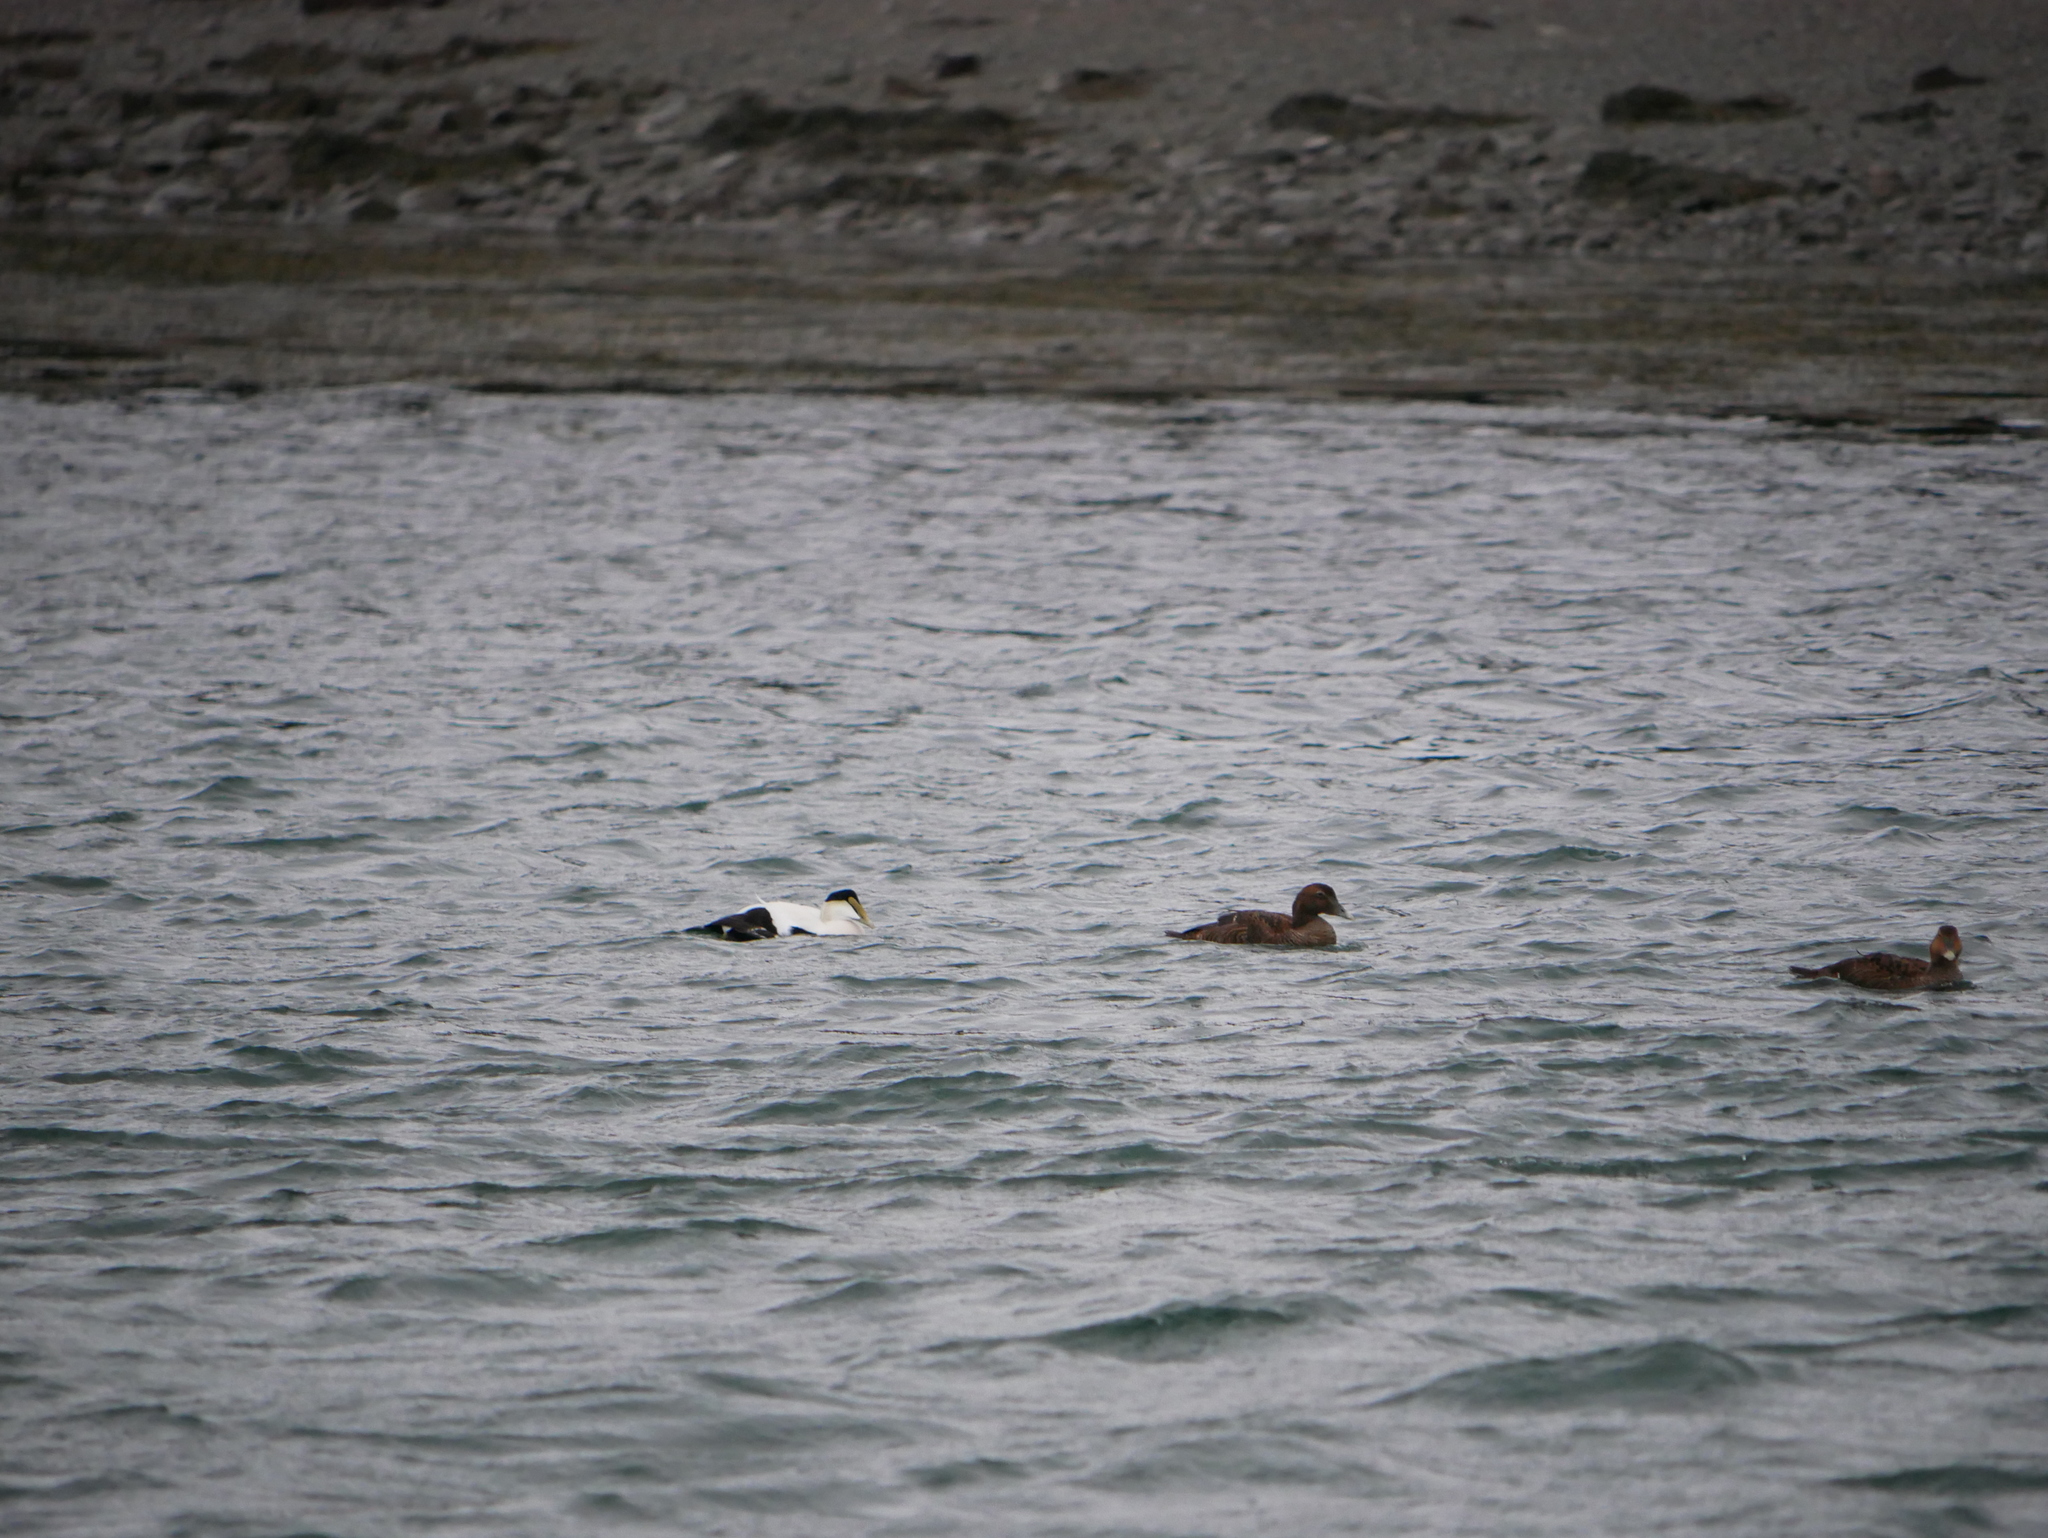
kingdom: Animalia
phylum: Chordata
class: Aves
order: Anseriformes
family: Anatidae
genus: Somateria
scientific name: Somateria mollissima
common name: Common eider
